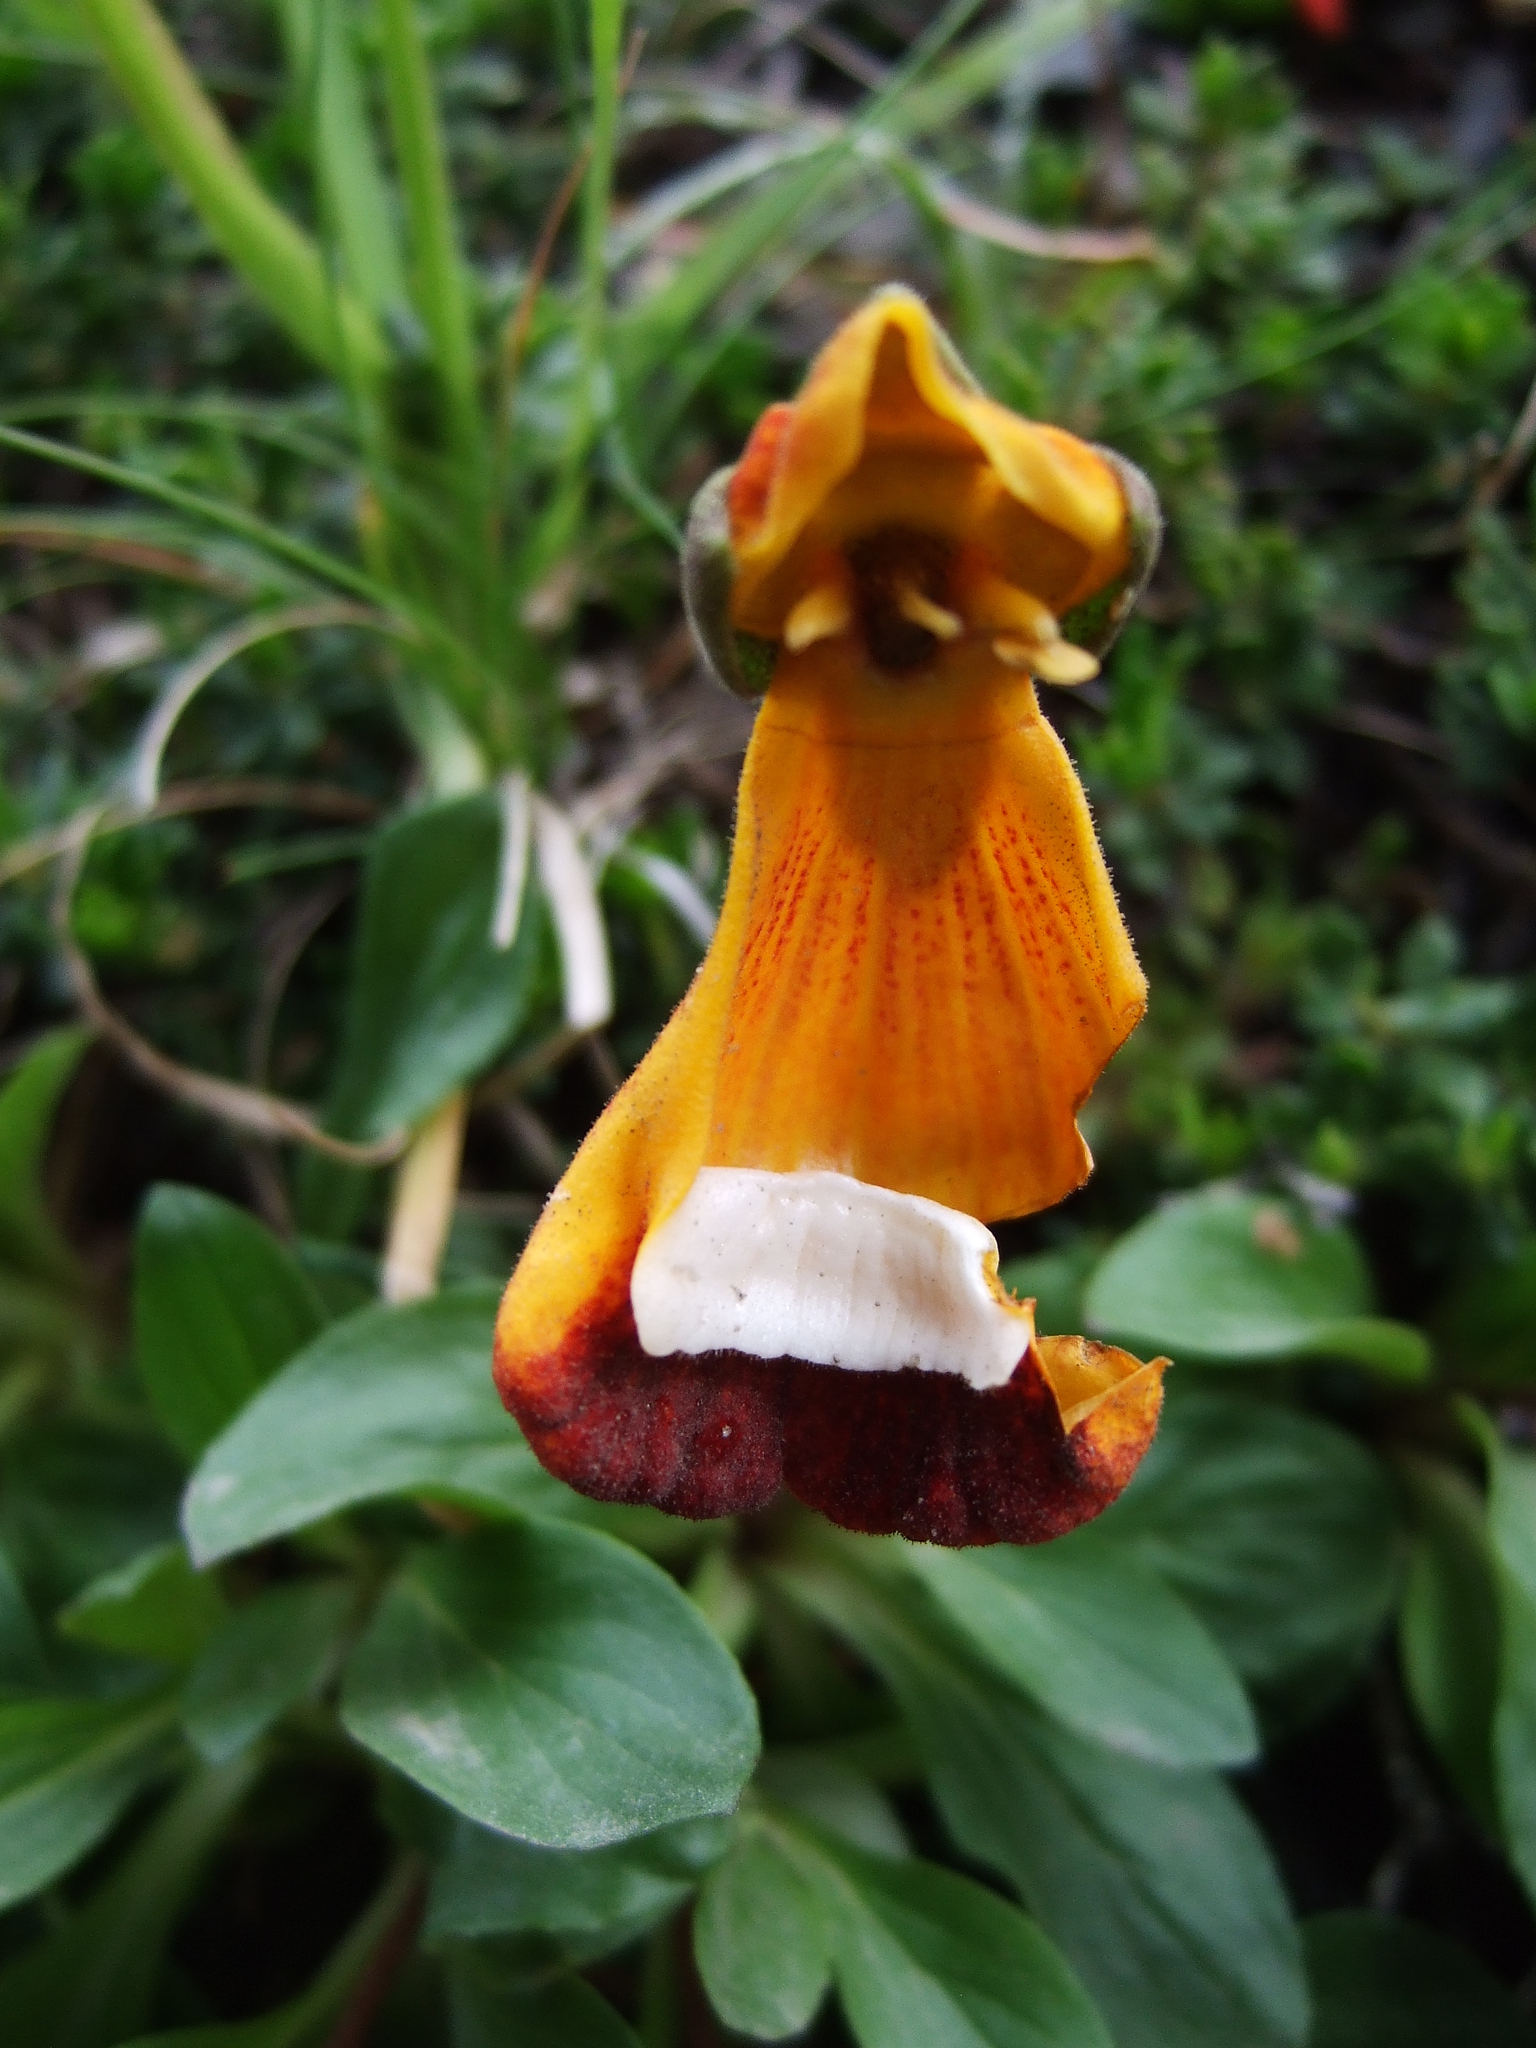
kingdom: Plantae
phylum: Tracheophyta
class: Magnoliopsida
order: Lamiales
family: Calceolariaceae
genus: Calceolaria
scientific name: Calceolaria uniflora
